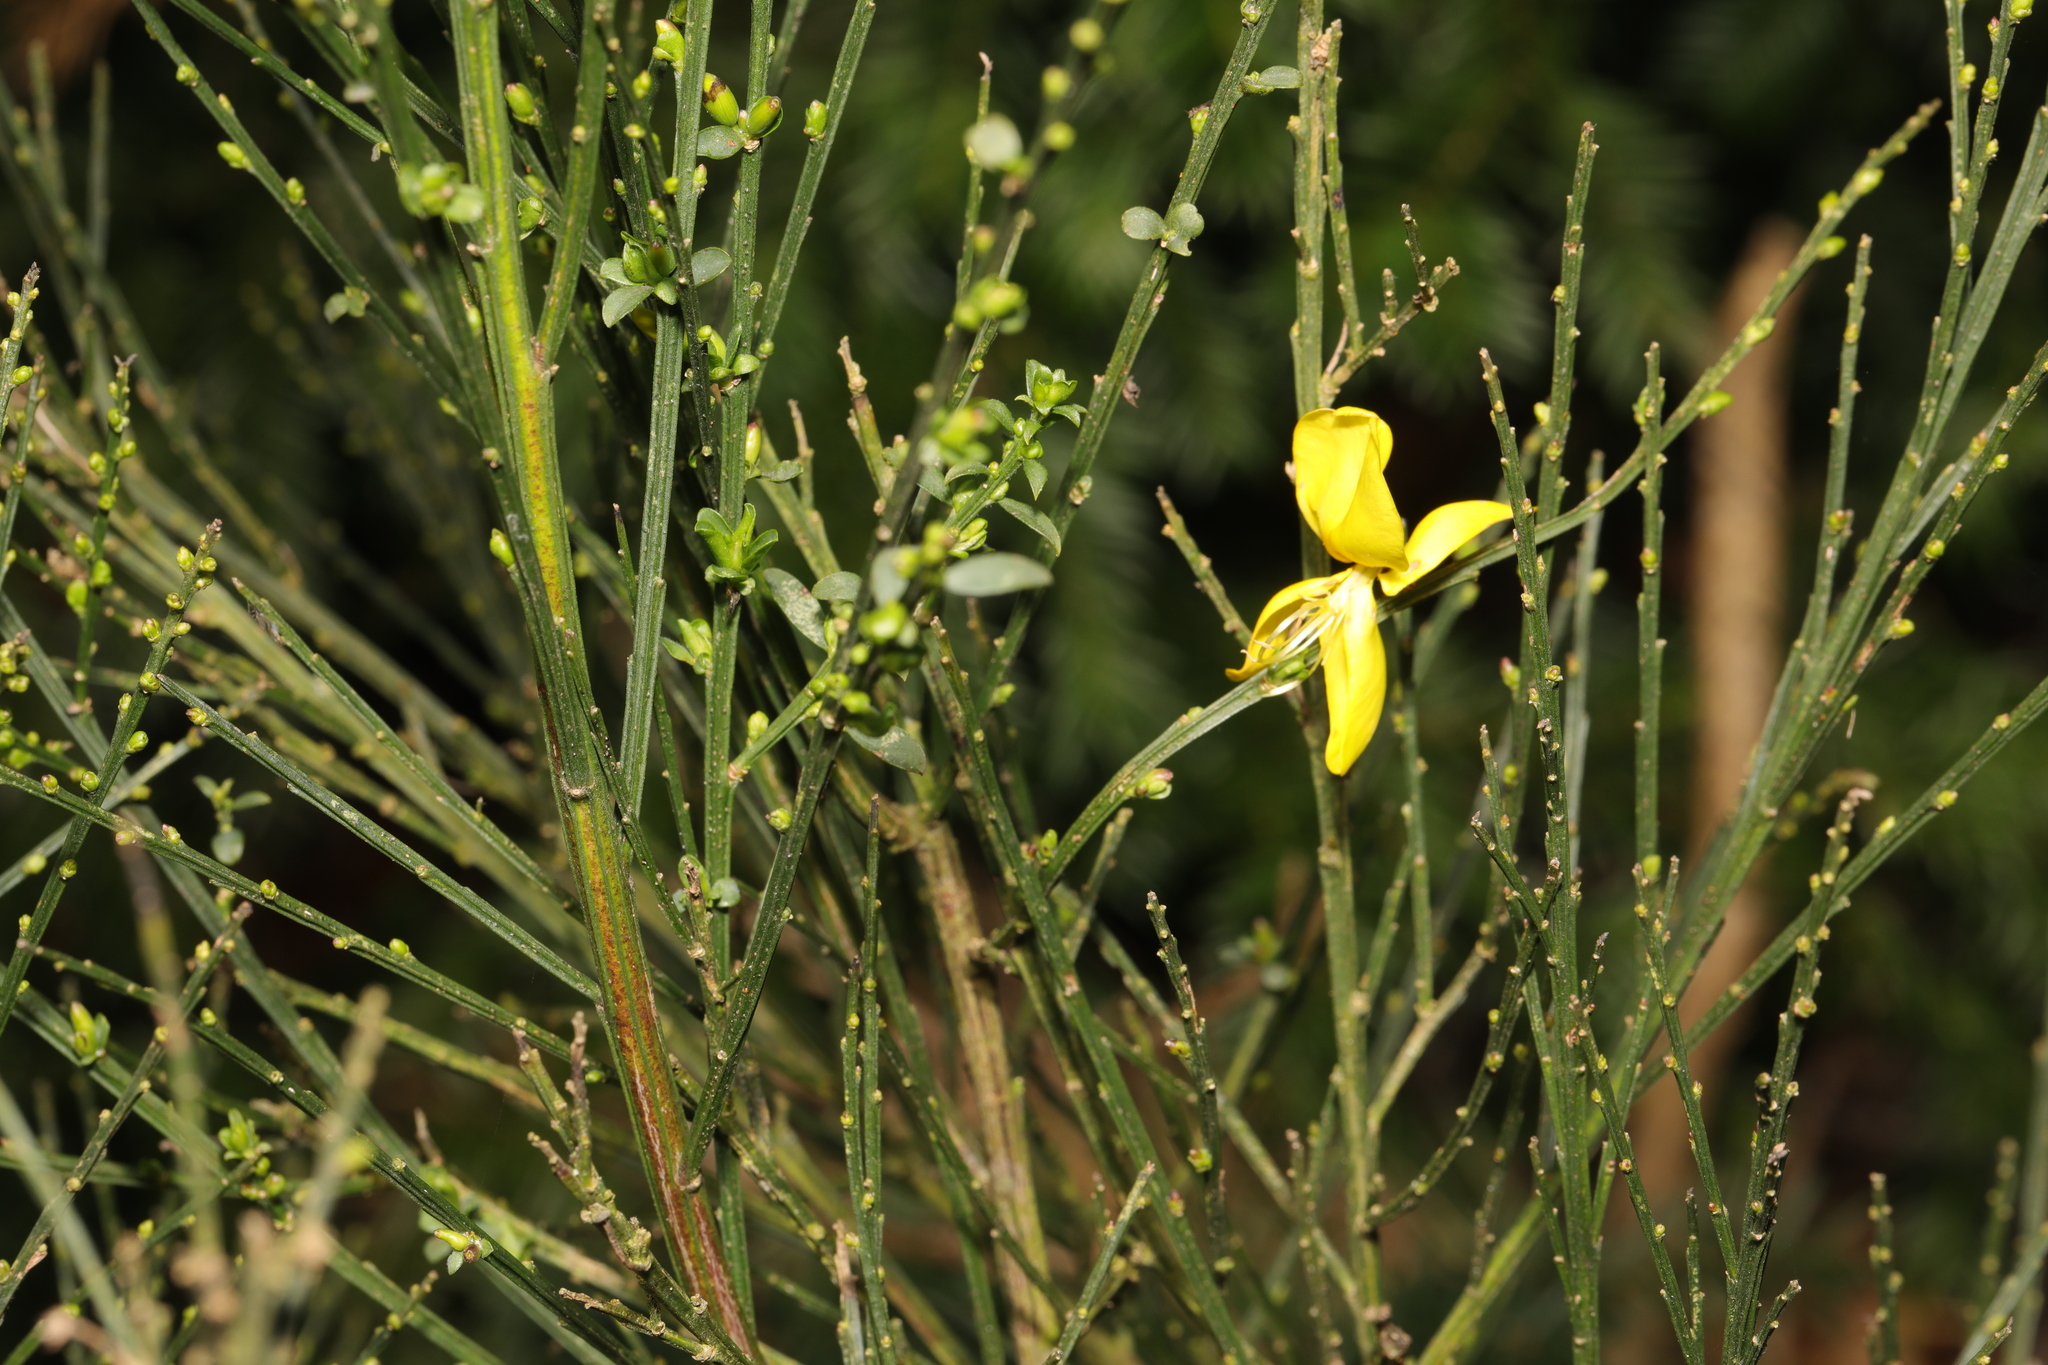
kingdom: Plantae
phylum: Tracheophyta
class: Magnoliopsida
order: Fabales
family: Fabaceae
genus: Cytisus
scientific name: Cytisus scoparius
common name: Scotch broom
